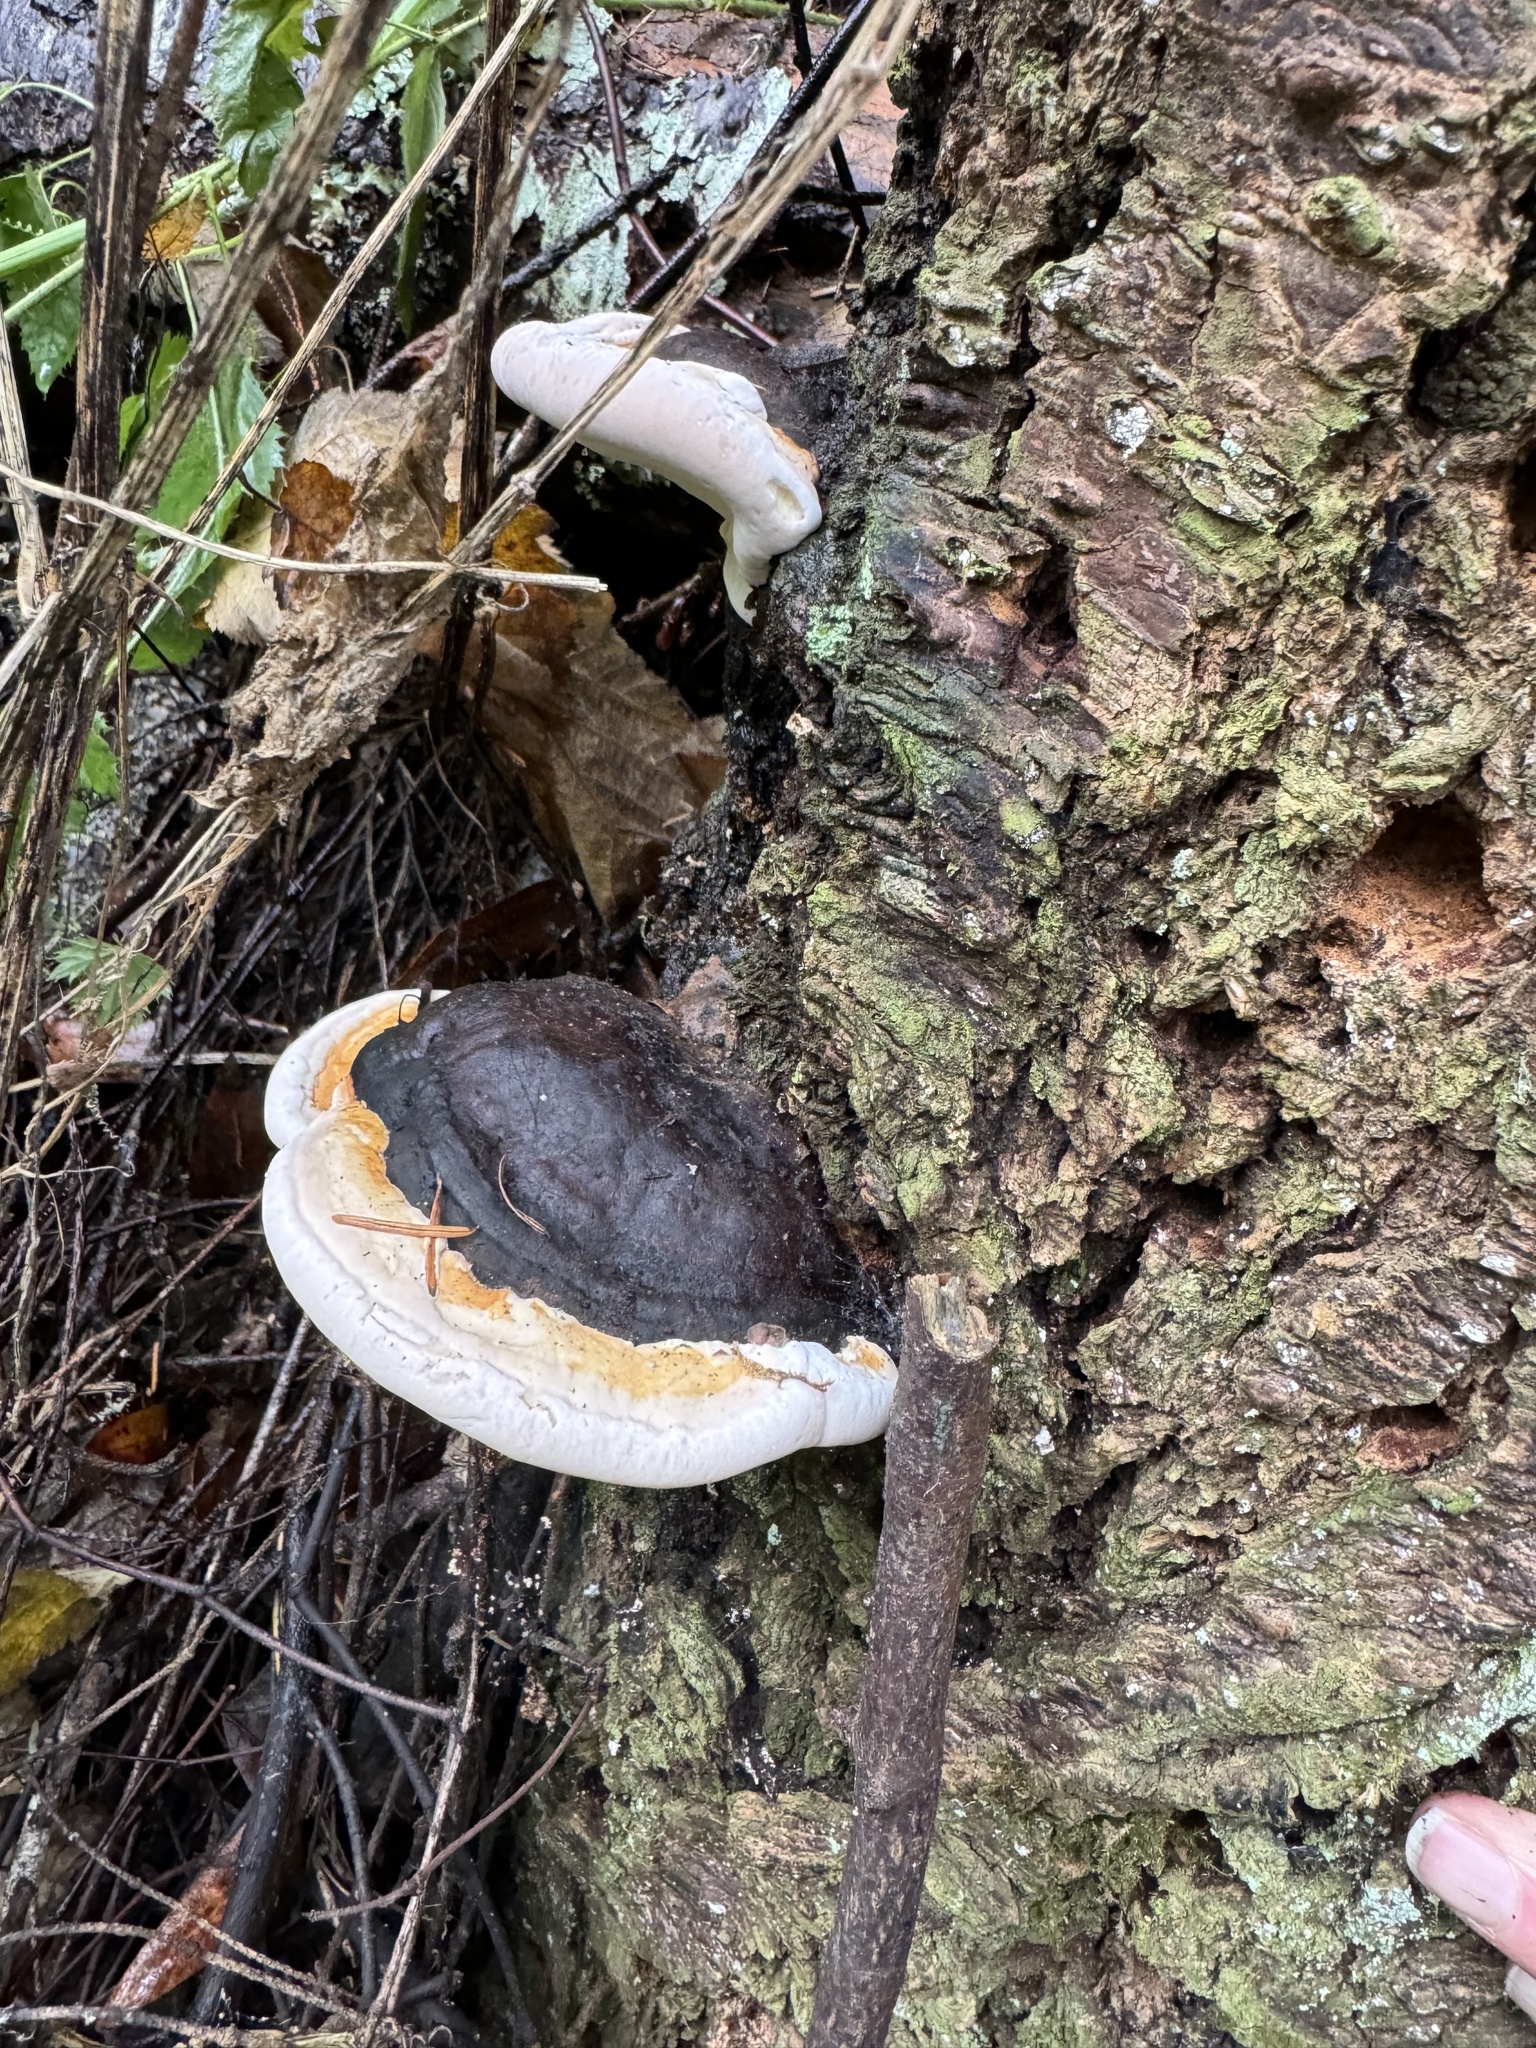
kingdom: Fungi
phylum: Basidiomycota
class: Agaricomycetes
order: Polyporales
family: Fomitopsidaceae
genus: Fomitopsis
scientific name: Fomitopsis mounceae
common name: Northern red belt
